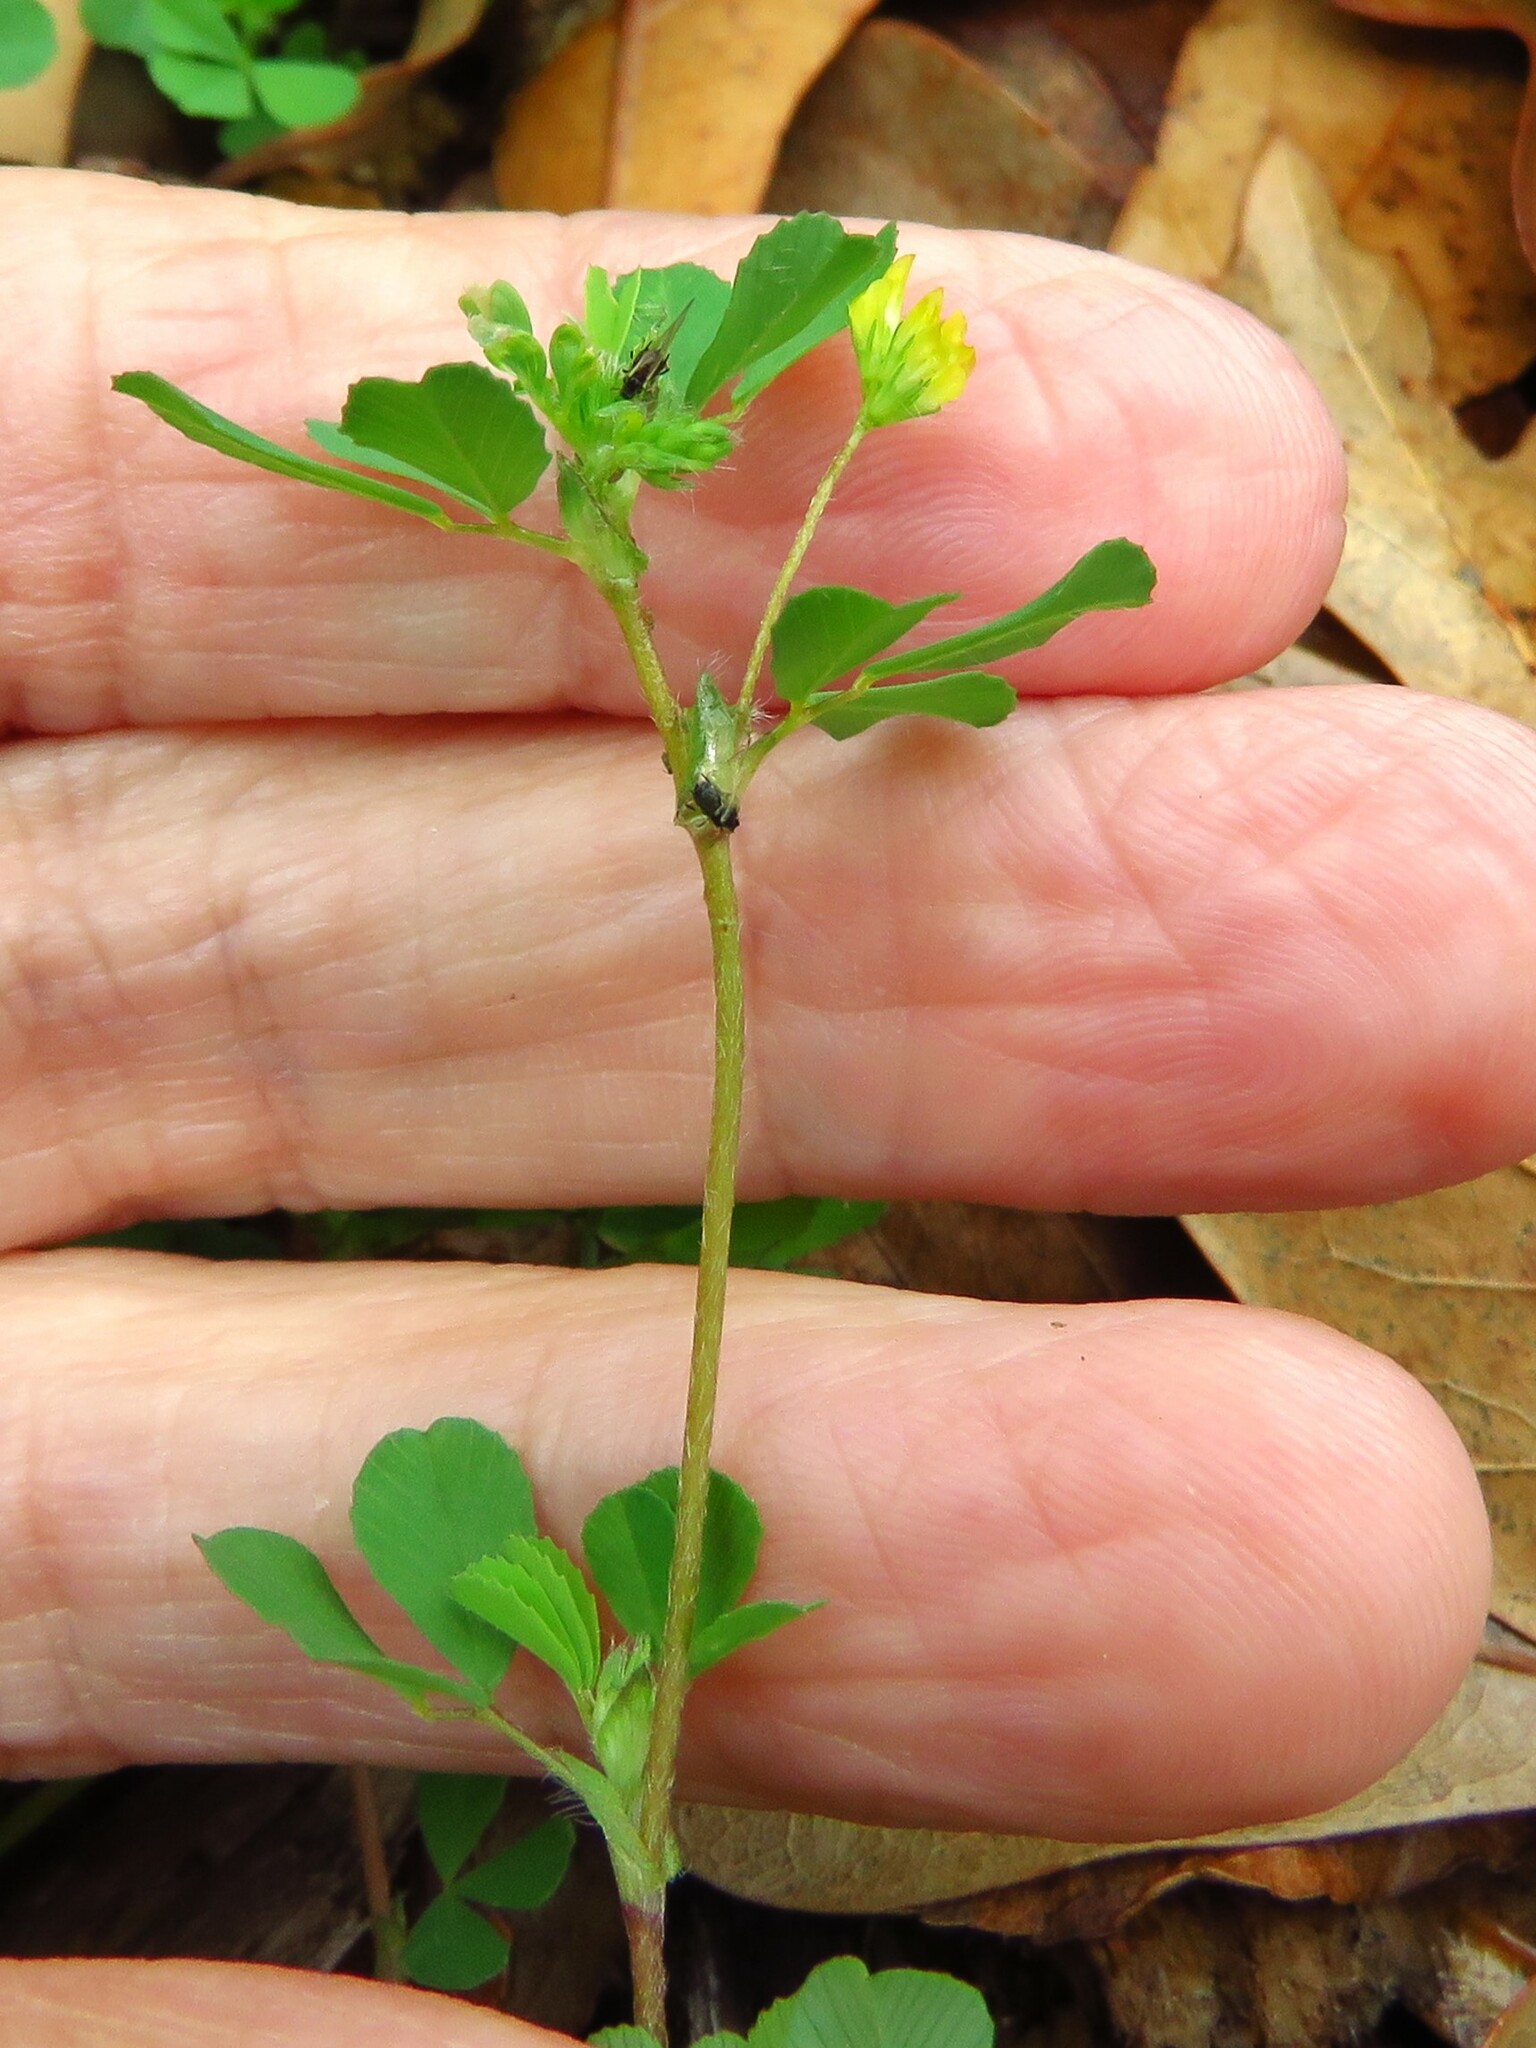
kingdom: Plantae
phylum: Tracheophyta
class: Magnoliopsida
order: Fabales
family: Fabaceae
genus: Trifolium
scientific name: Trifolium dubium
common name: Suckling clover
